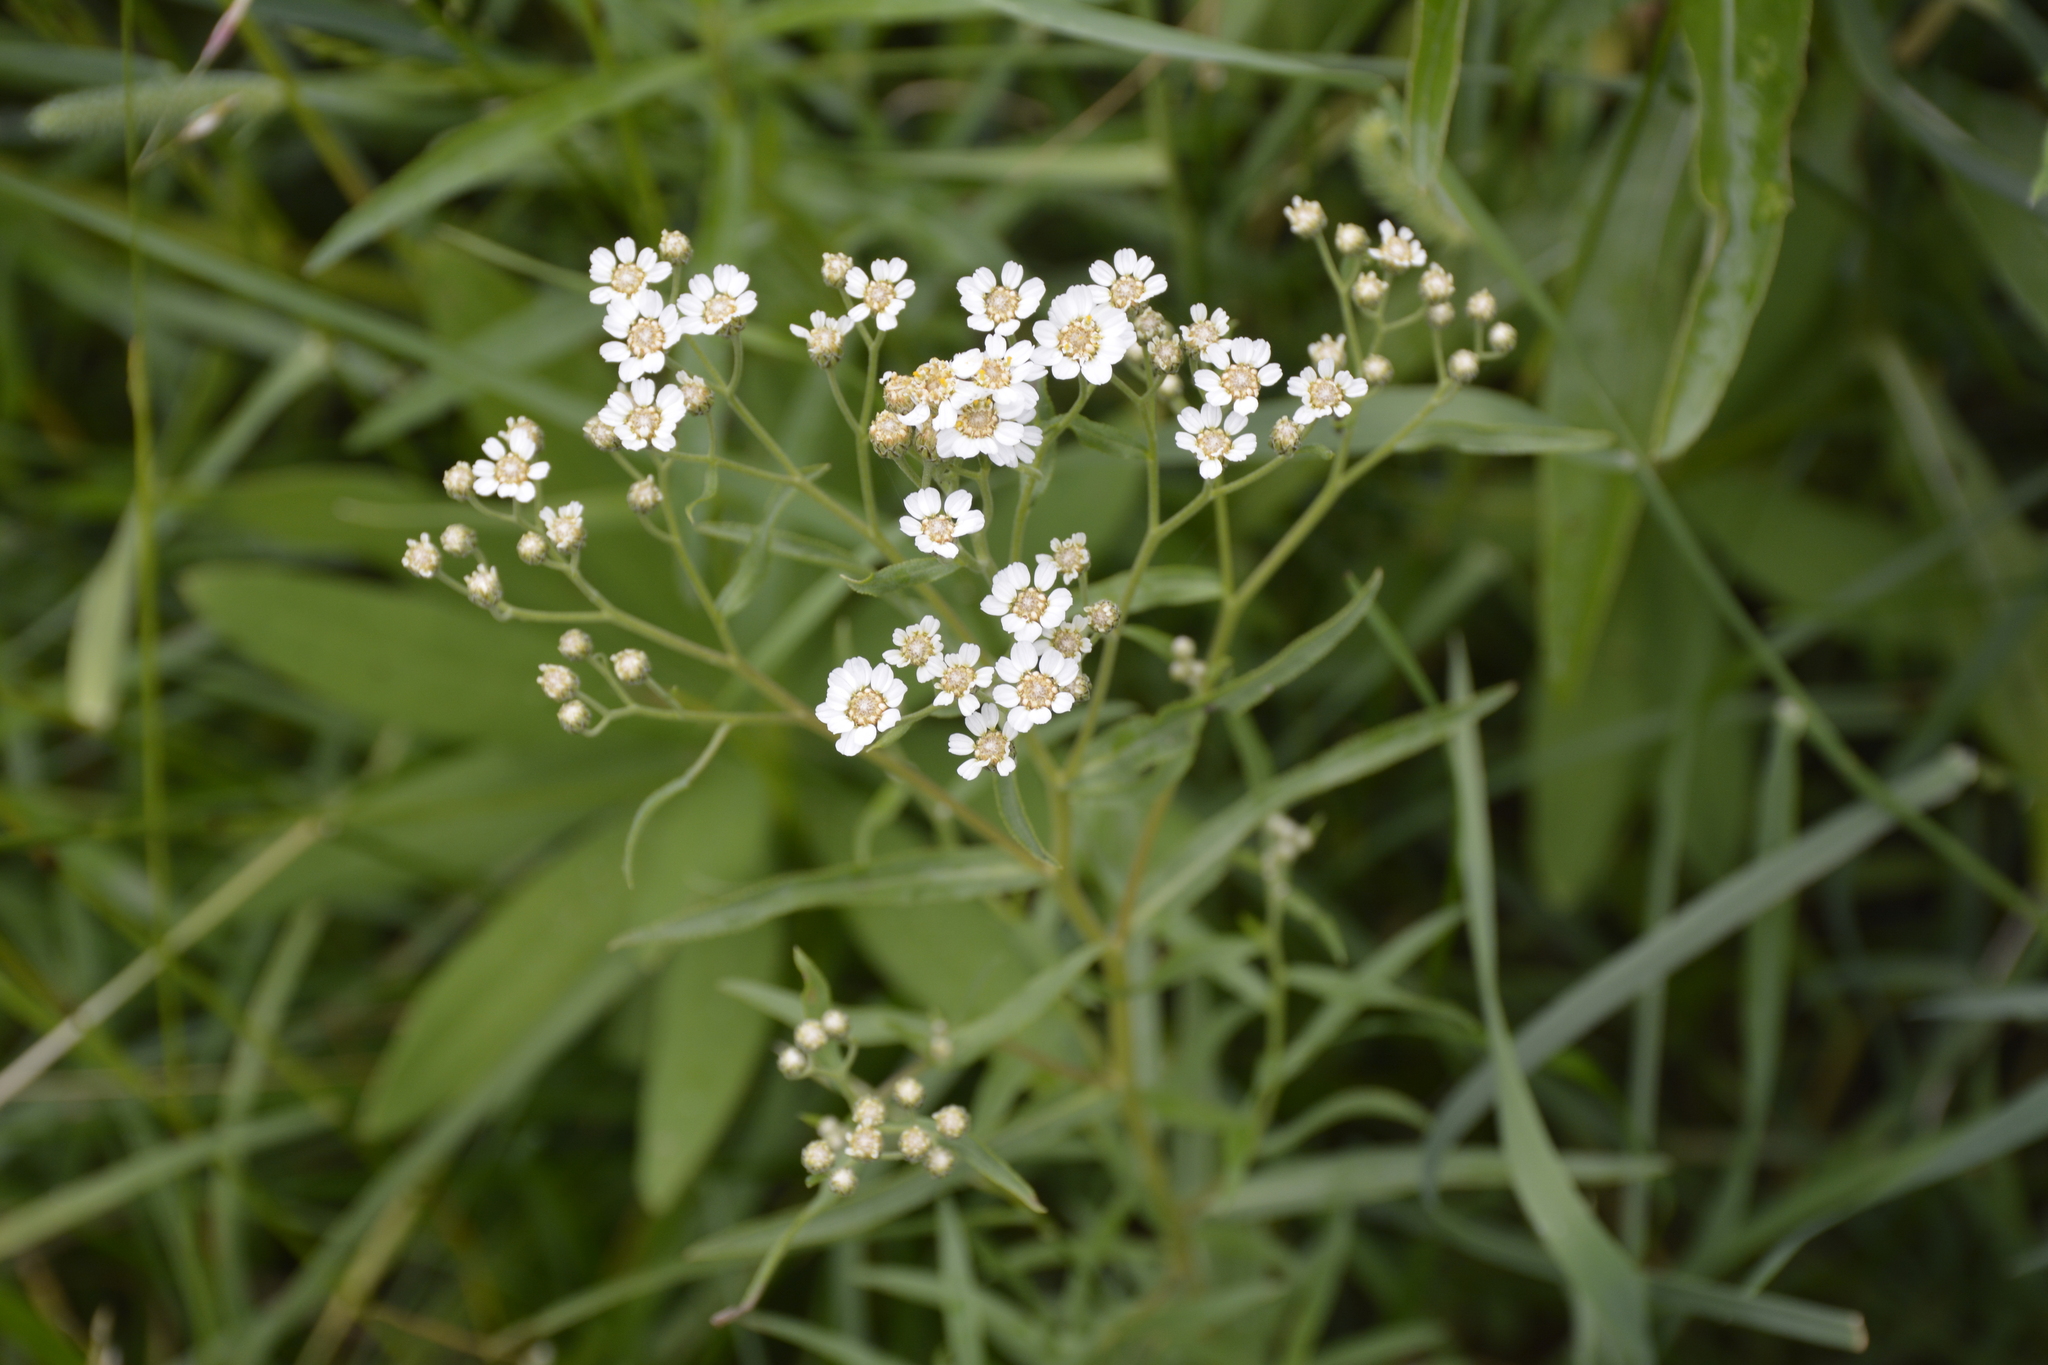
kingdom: Plantae
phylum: Tracheophyta
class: Magnoliopsida
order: Asterales
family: Asteraceae
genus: Achillea
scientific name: Achillea salicifolia
